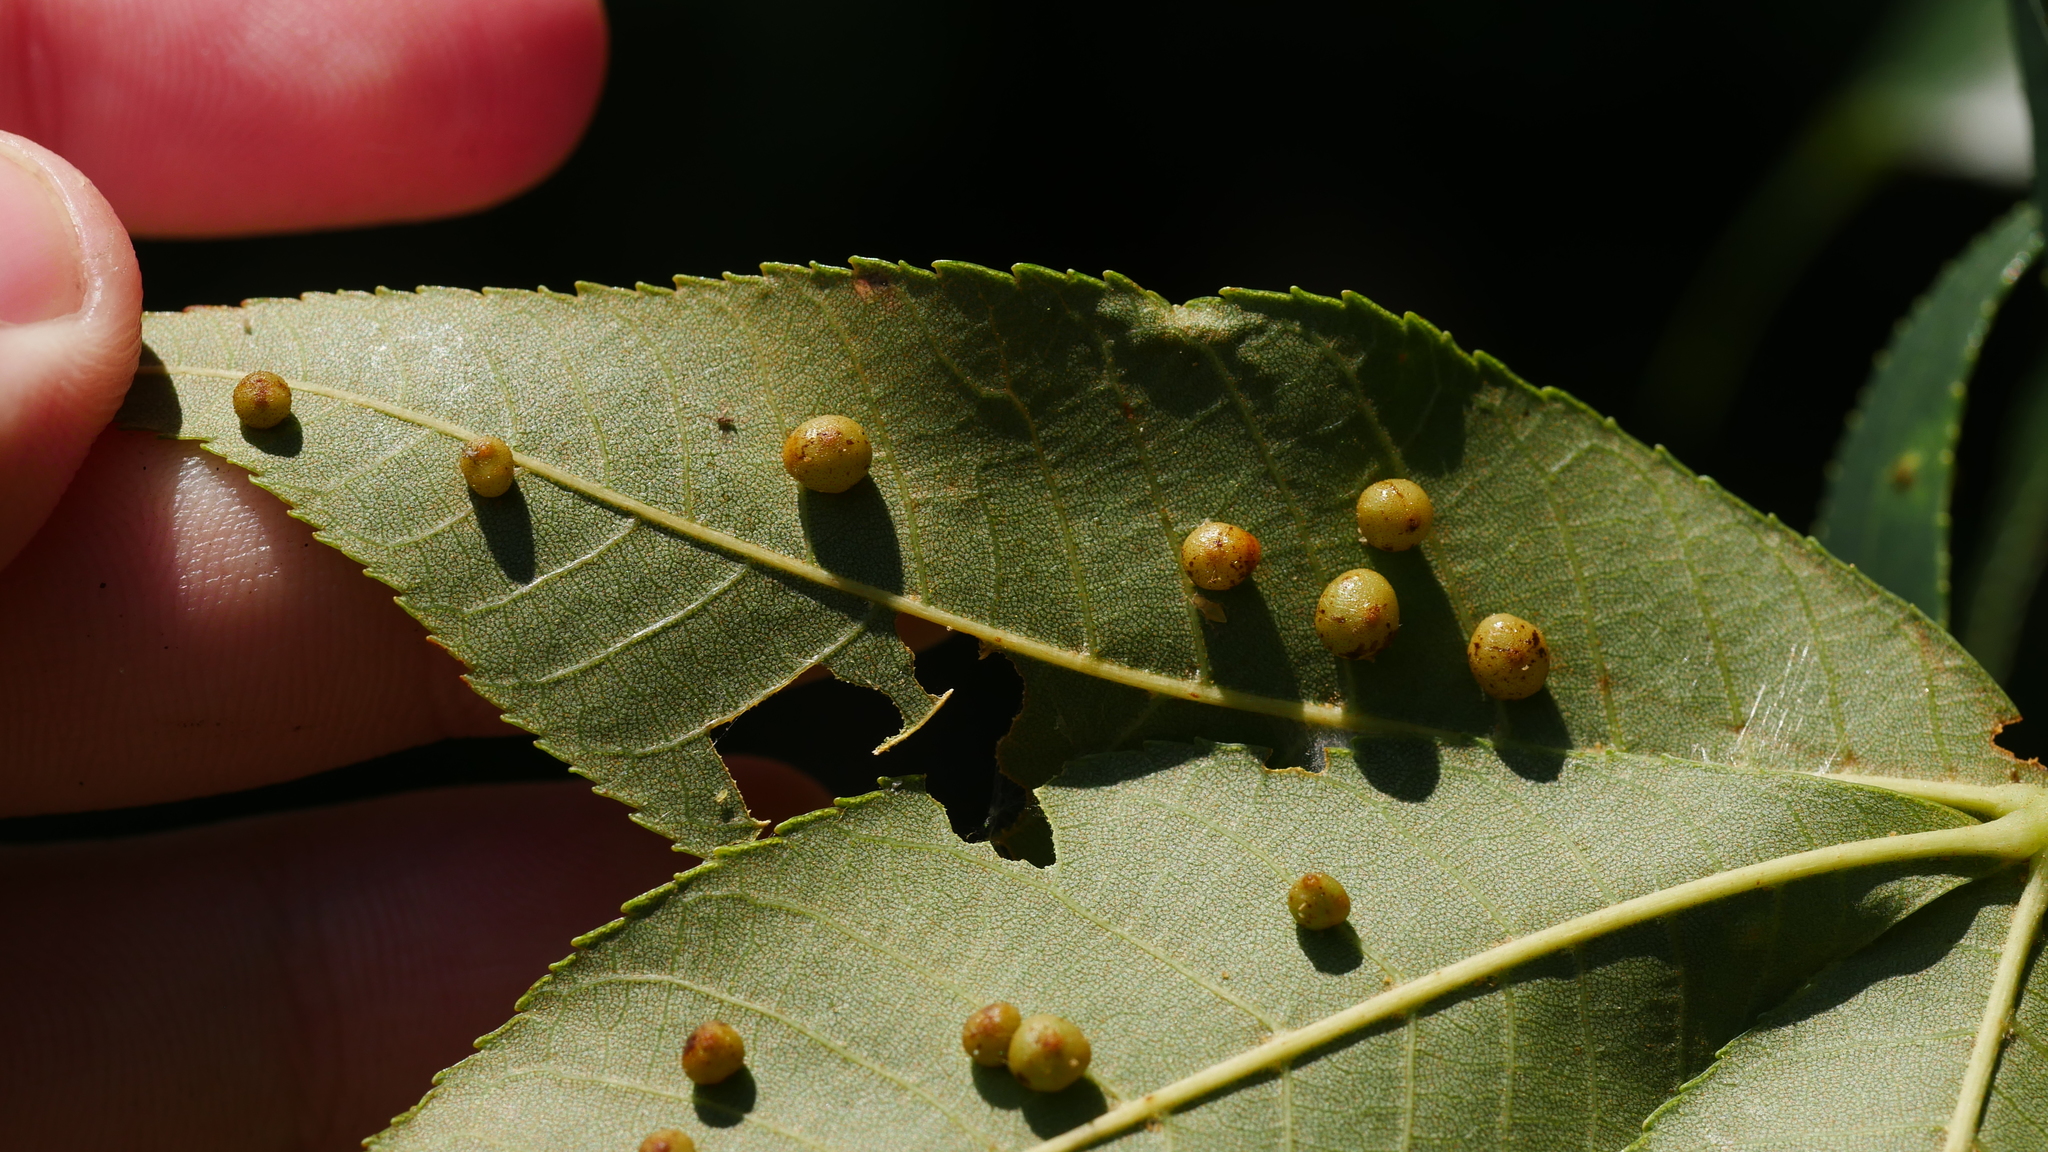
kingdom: Animalia
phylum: Arthropoda
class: Insecta
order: Diptera
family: Cecidomyiidae
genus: Caryomyia
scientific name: Caryomyia caryae
